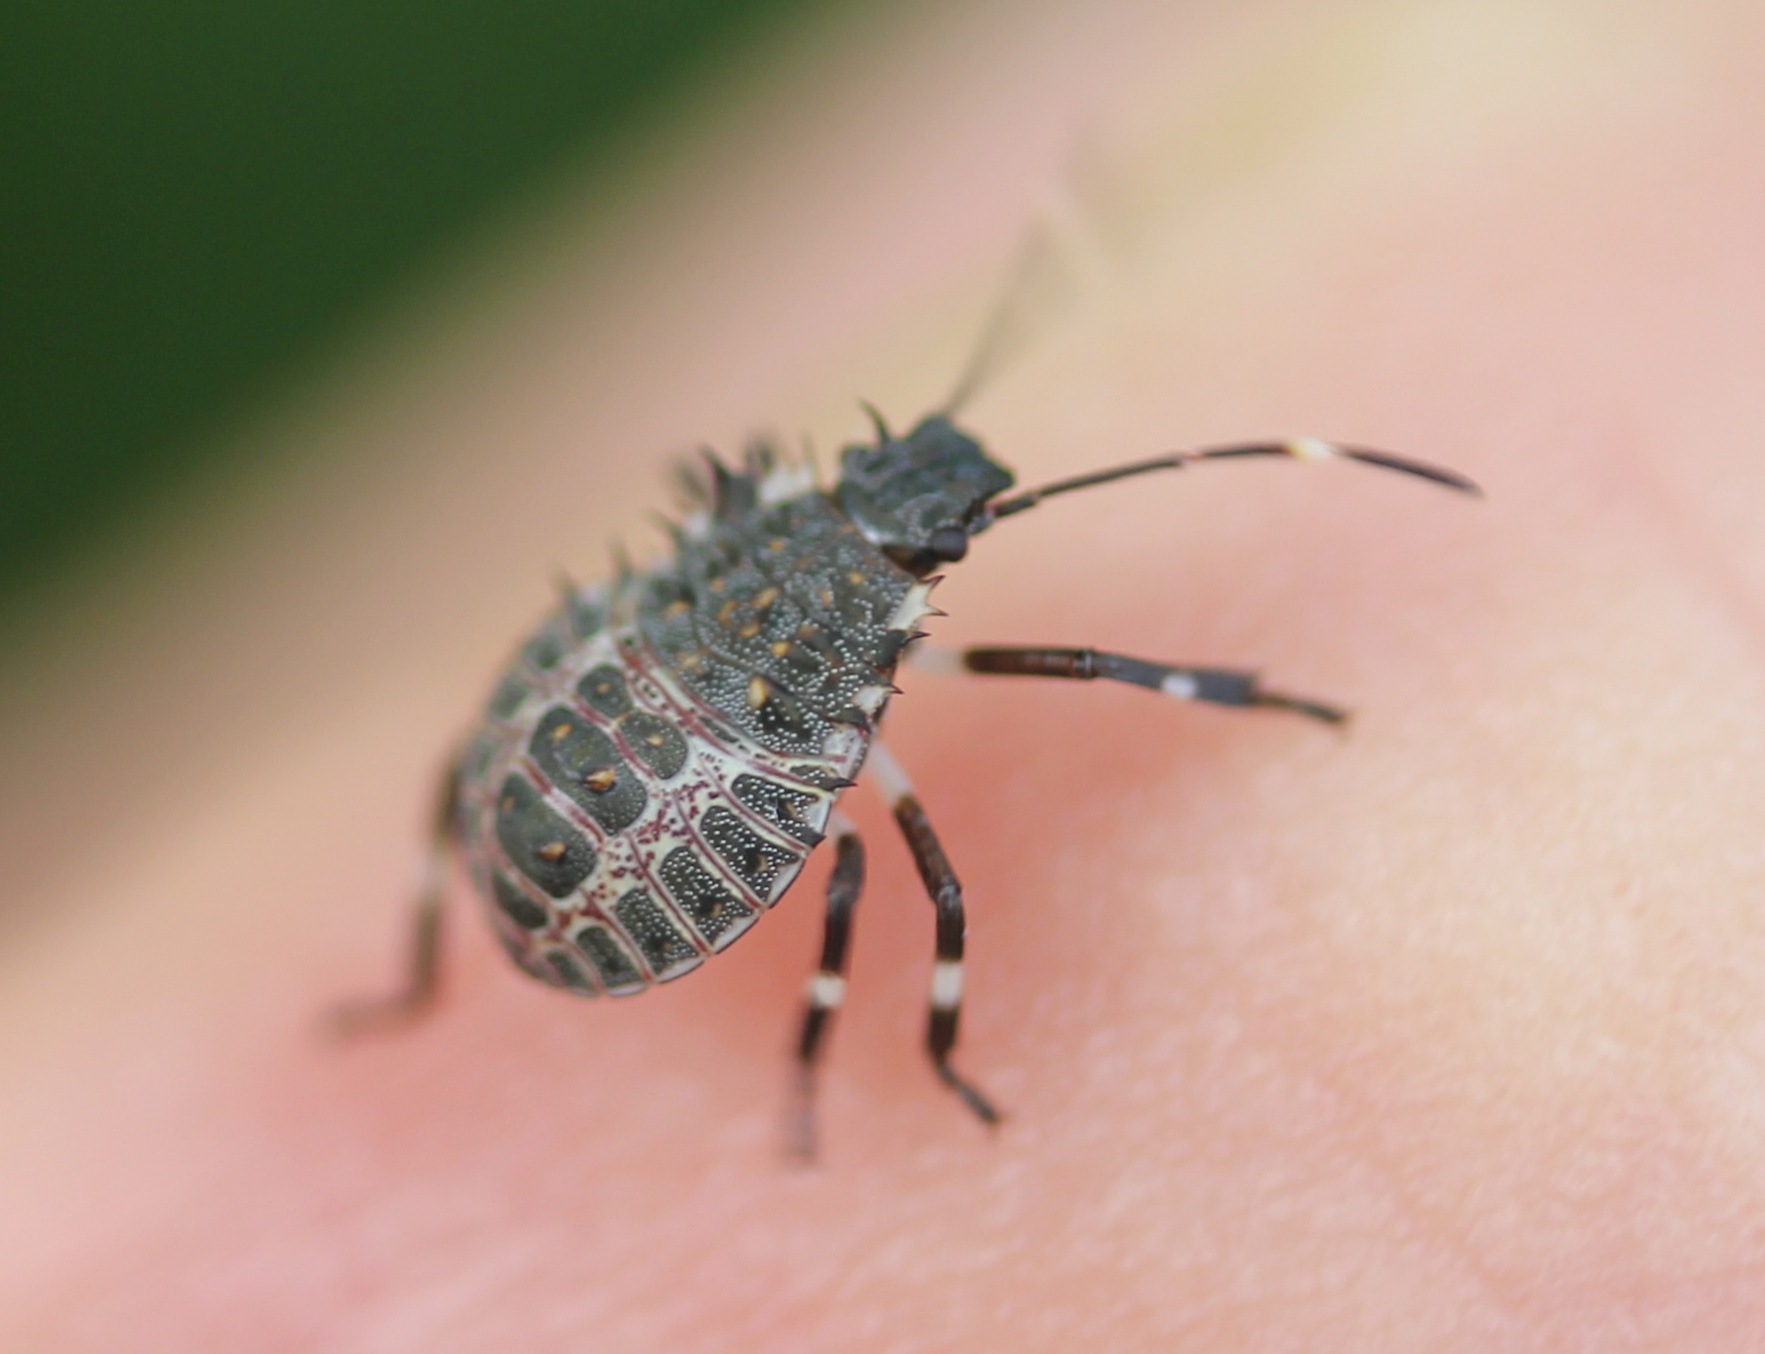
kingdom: Animalia
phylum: Arthropoda
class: Insecta
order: Hemiptera
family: Pentatomidae
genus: Halyomorpha
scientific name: Halyomorpha halys
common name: Brown marmorated stink bug
